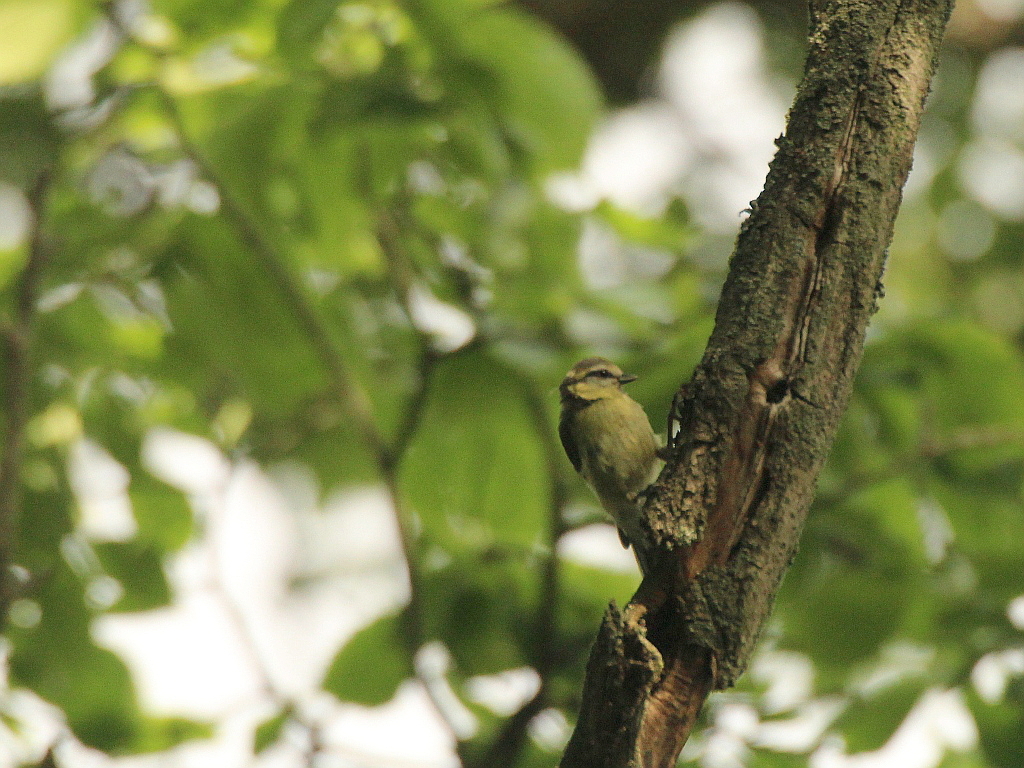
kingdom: Animalia
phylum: Chordata
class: Aves
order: Passeriformes
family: Paridae
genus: Cyanistes
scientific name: Cyanistes caeruleus
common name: Eurasian blue tit
